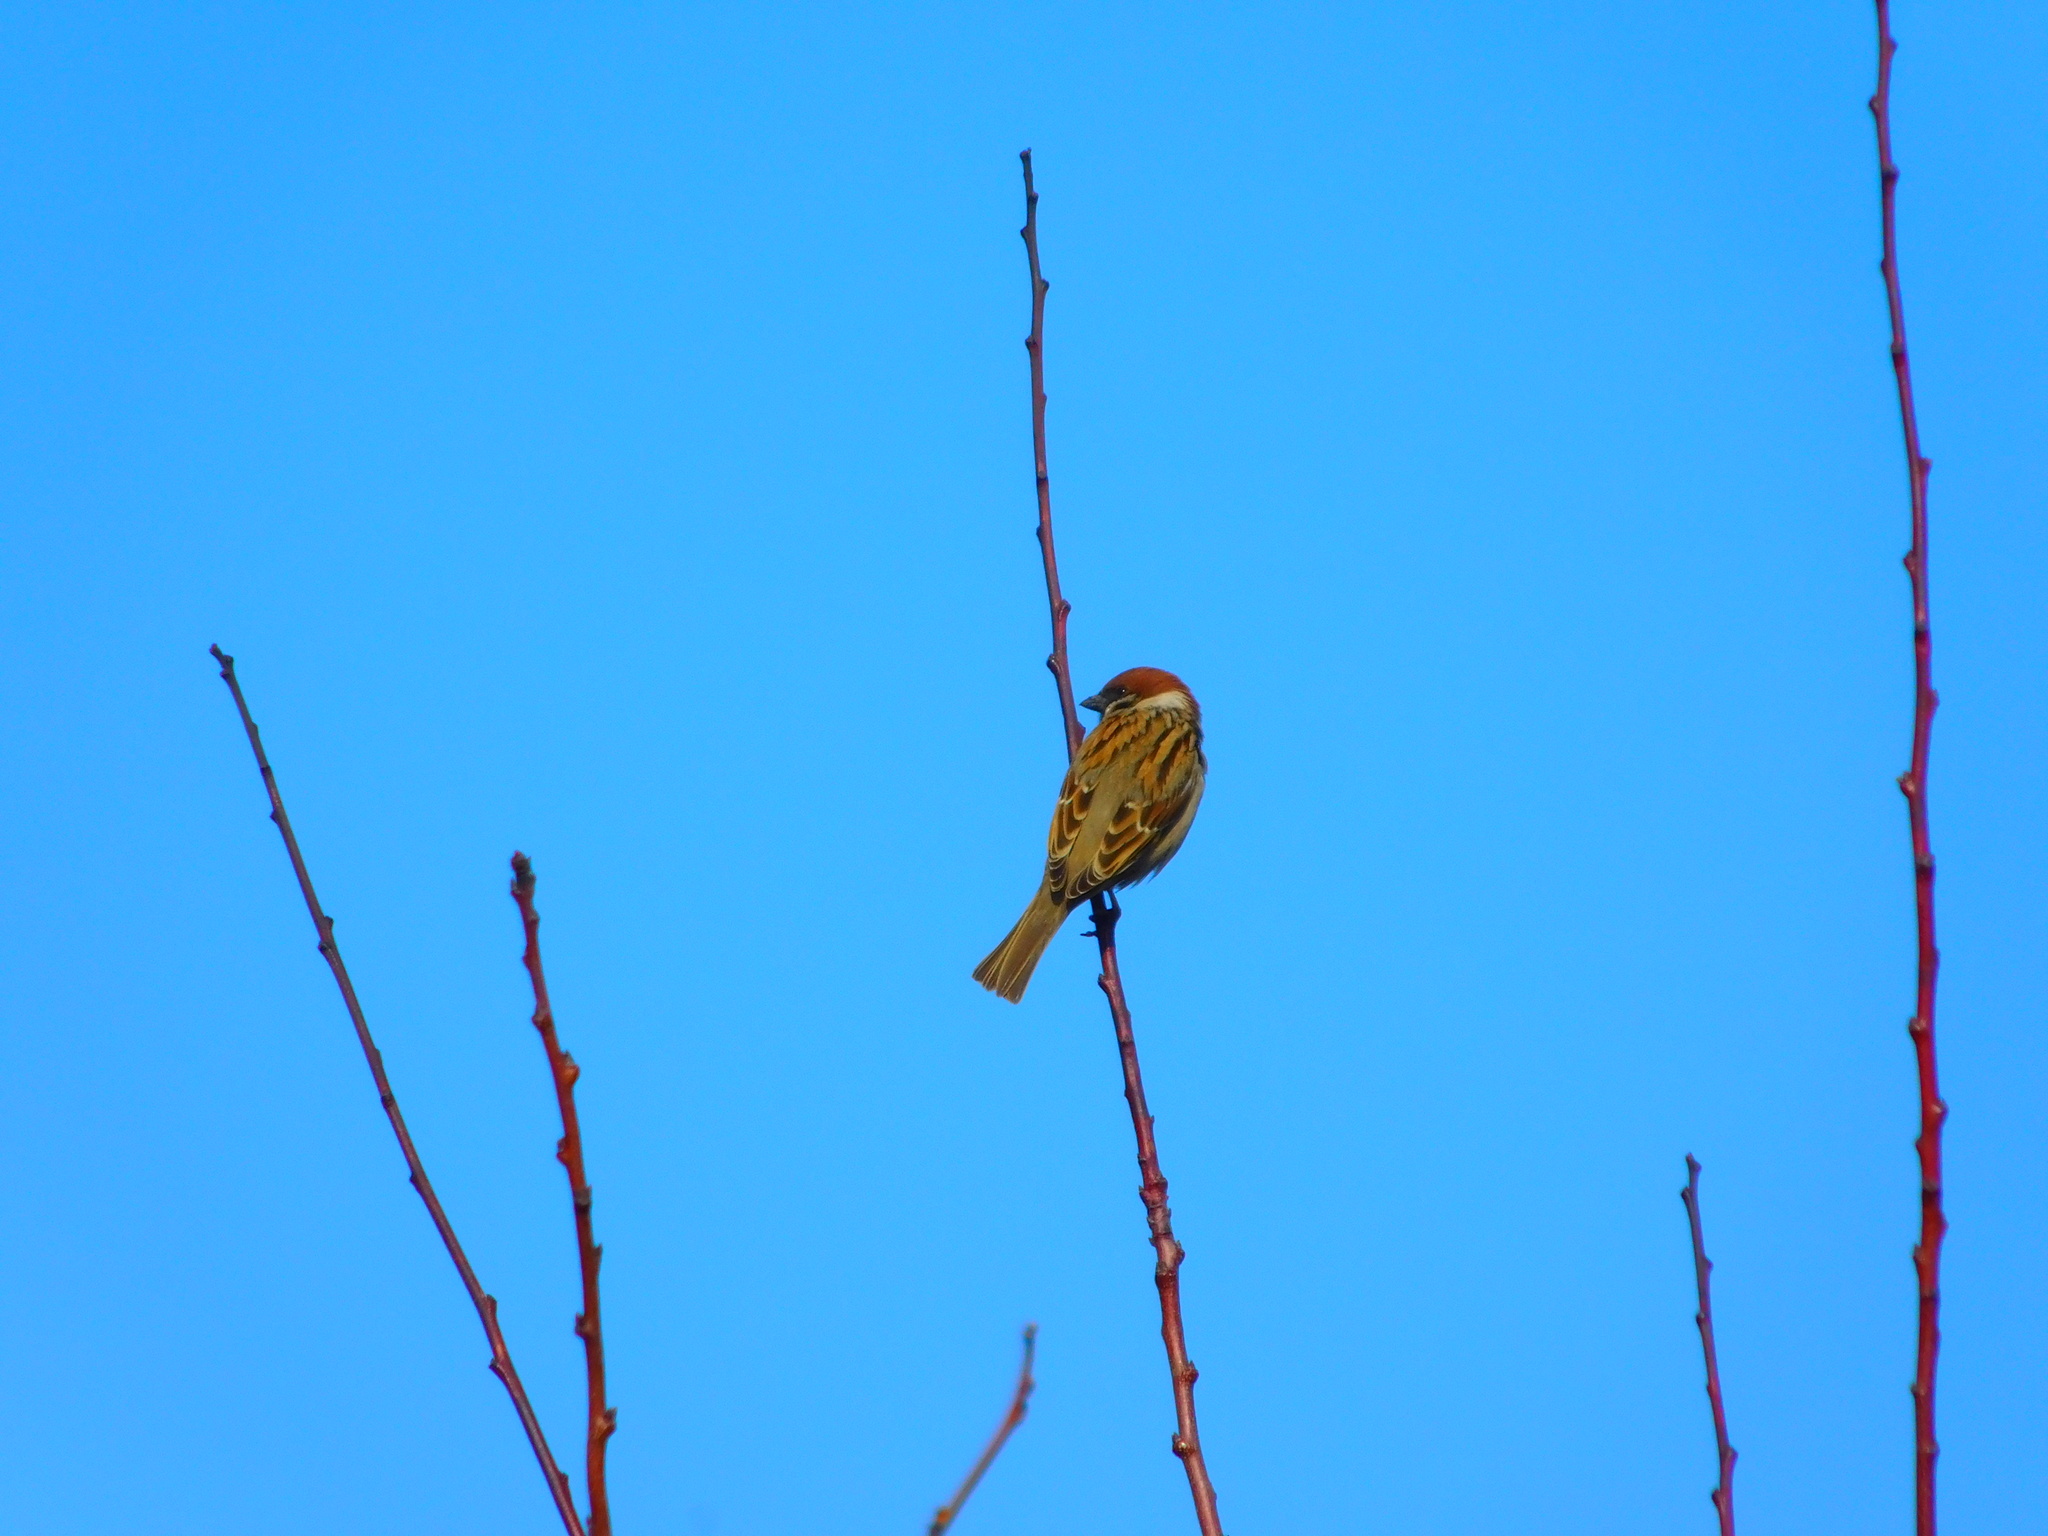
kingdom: Animalia
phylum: Chordata
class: Aves
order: Passeriformes
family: Passeridae
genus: Passer
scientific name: Passer montanus
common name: Eurasian tree sparrow
